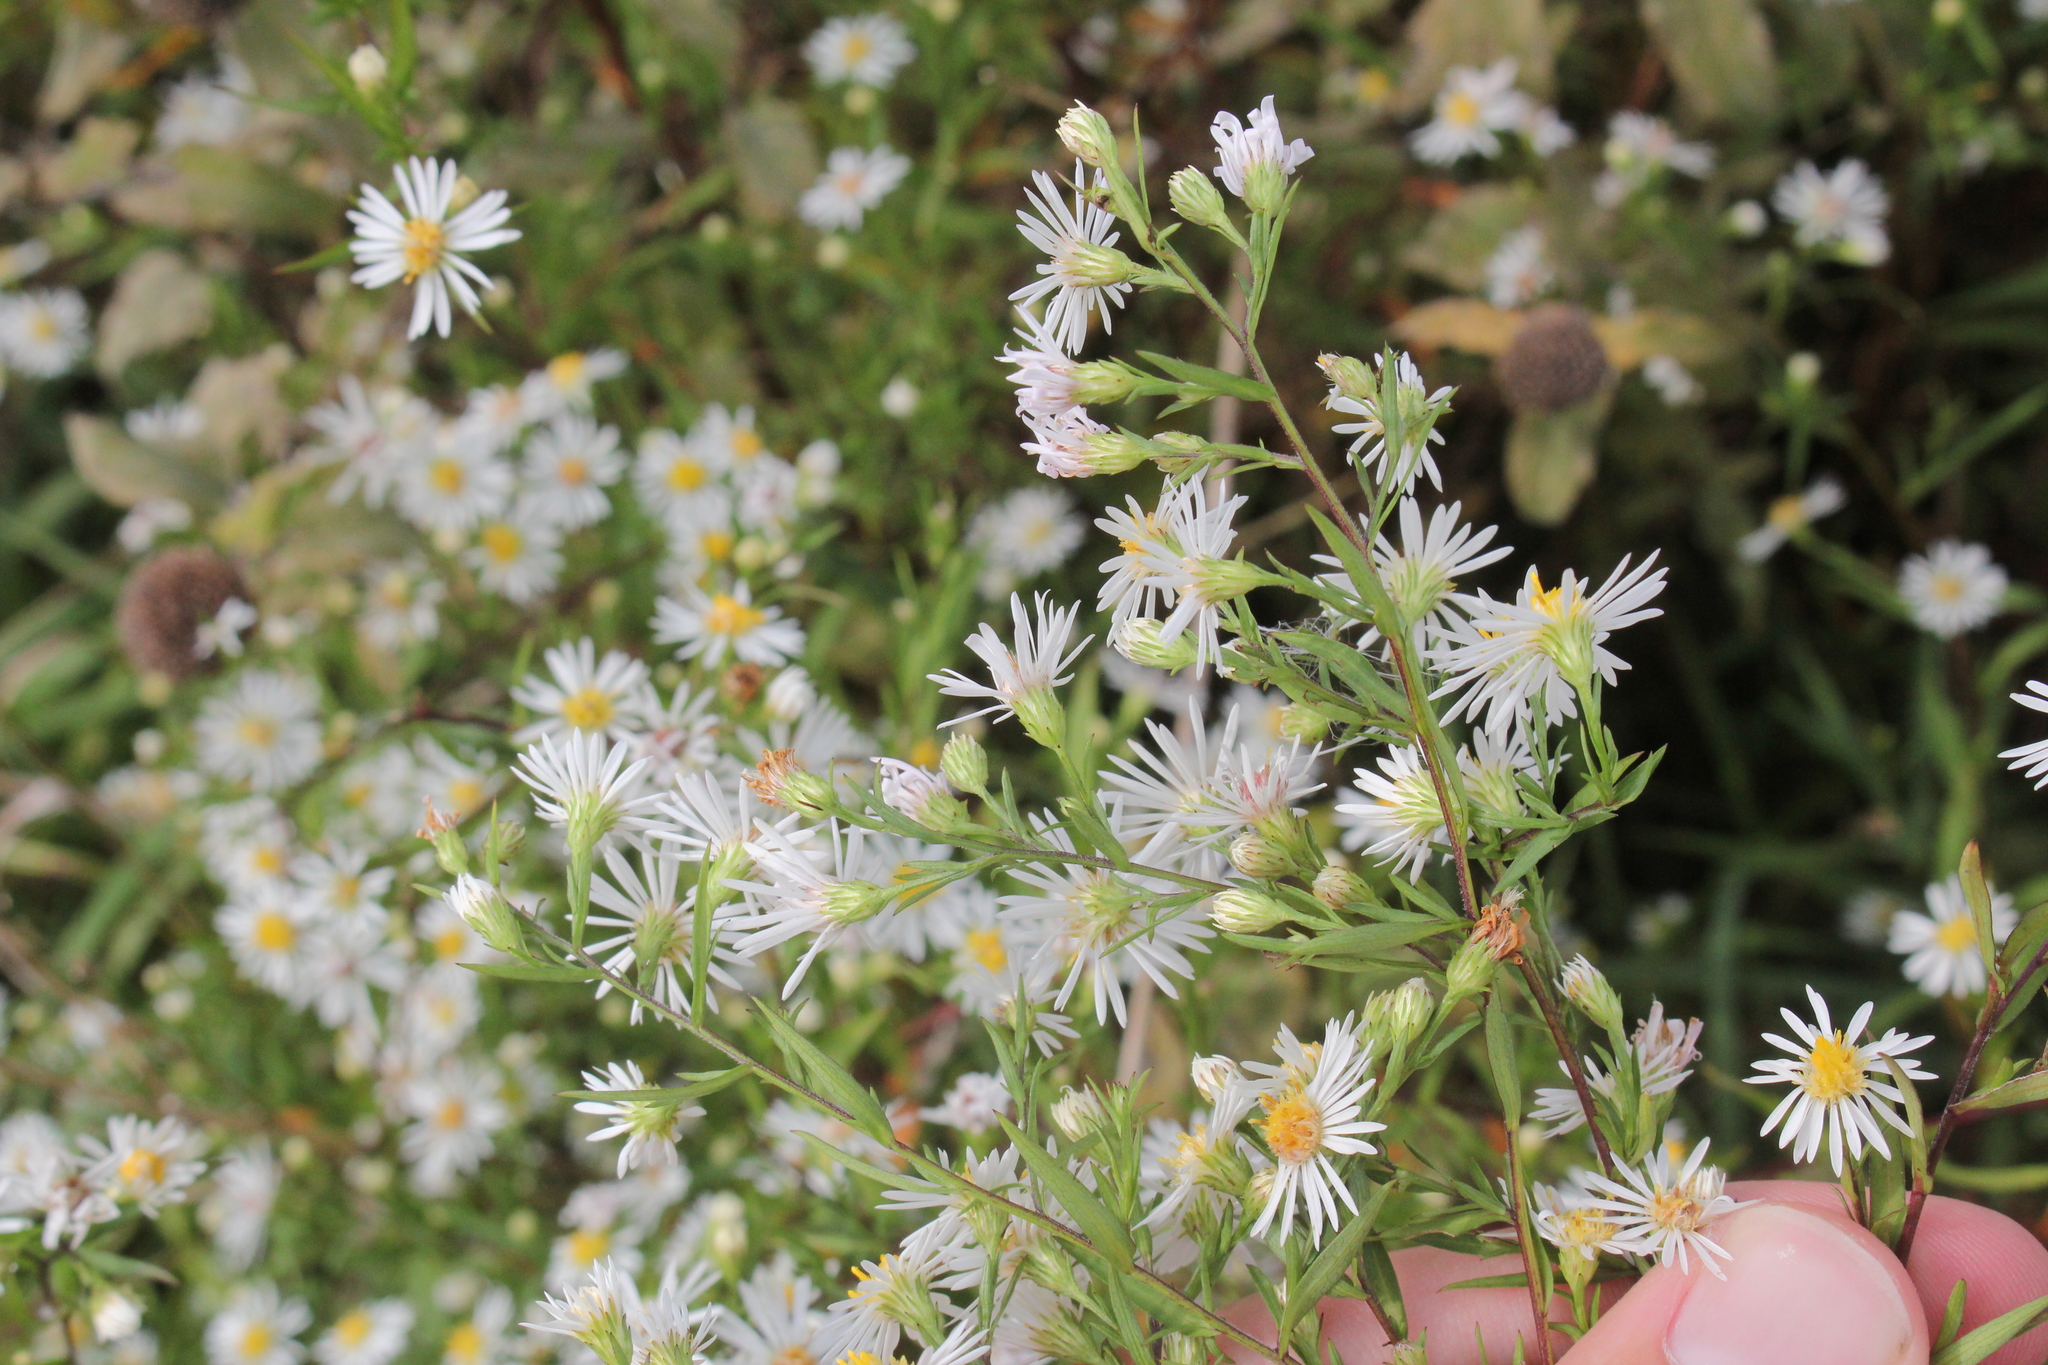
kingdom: Plantae
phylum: Tracheophyta
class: Magnoliopsida
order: Asterales
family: Asteraceae
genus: Symphyotrichum
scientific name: Symphyotrichum lanceolatum
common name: Panicled aster
